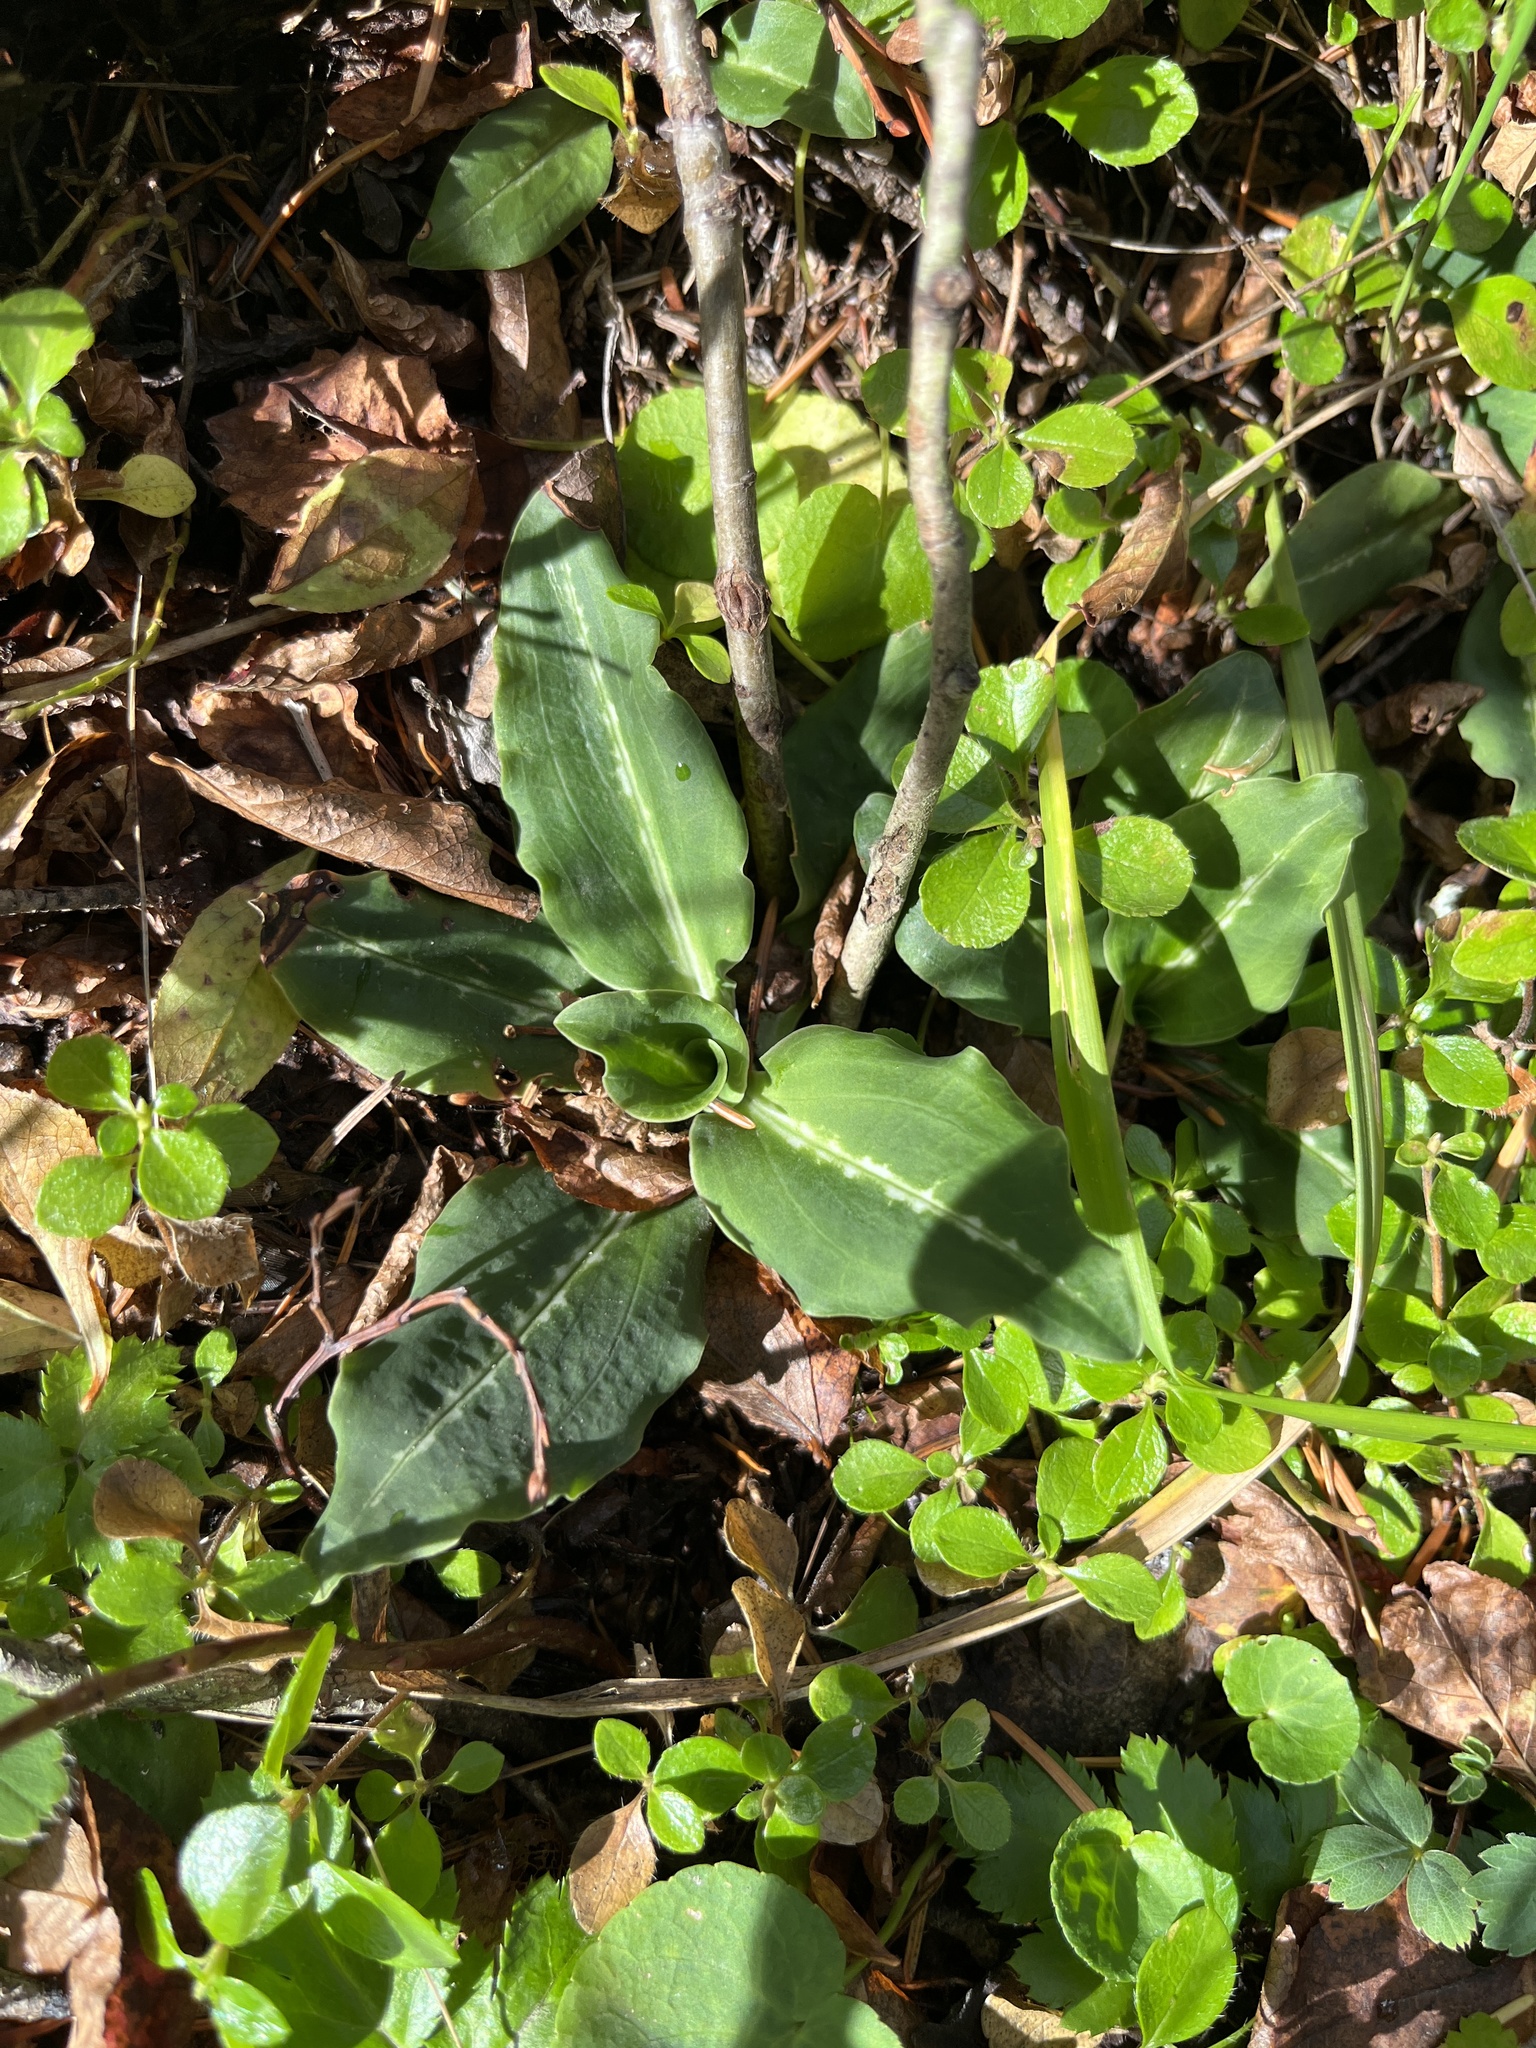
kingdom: Plantae
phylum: Tracheophyta
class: Liliopsida
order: Asparagales
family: Orchidaceae
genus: Goodyera
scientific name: Goodyera oblongifolia
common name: Giant rattlesnake-plantain
